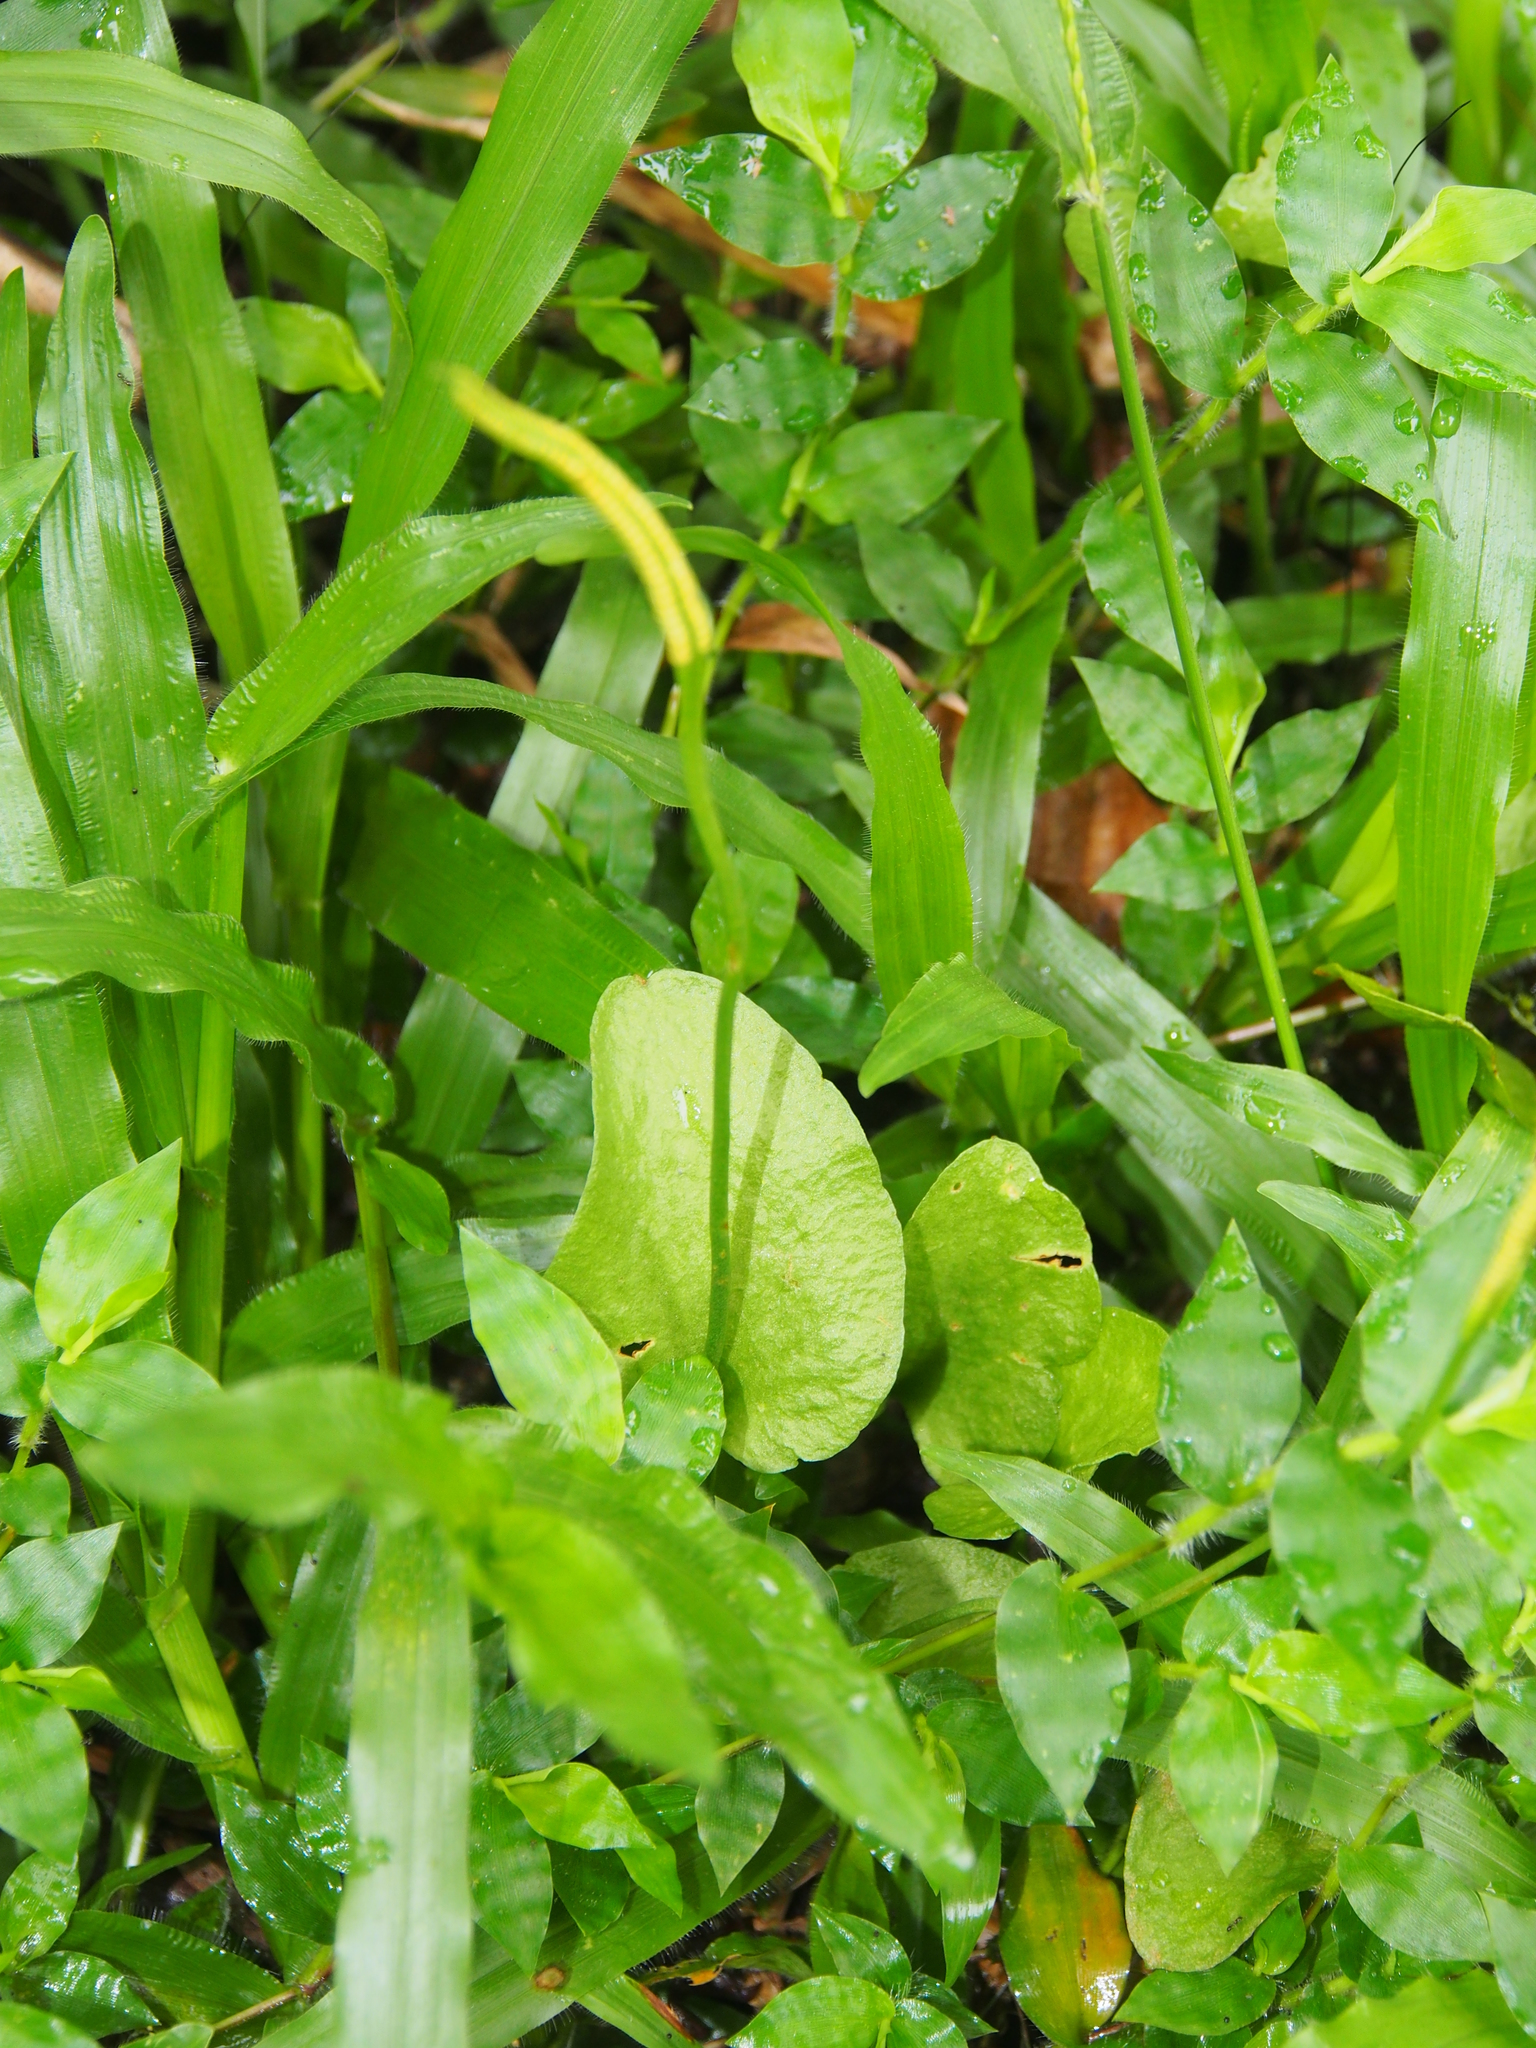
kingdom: Plantae
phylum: Tracheophyta
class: Polypodiopsida
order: Ophioglossales
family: Ophioglossaceae
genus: Ophioglossum
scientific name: Ophioglossum reticulatum
